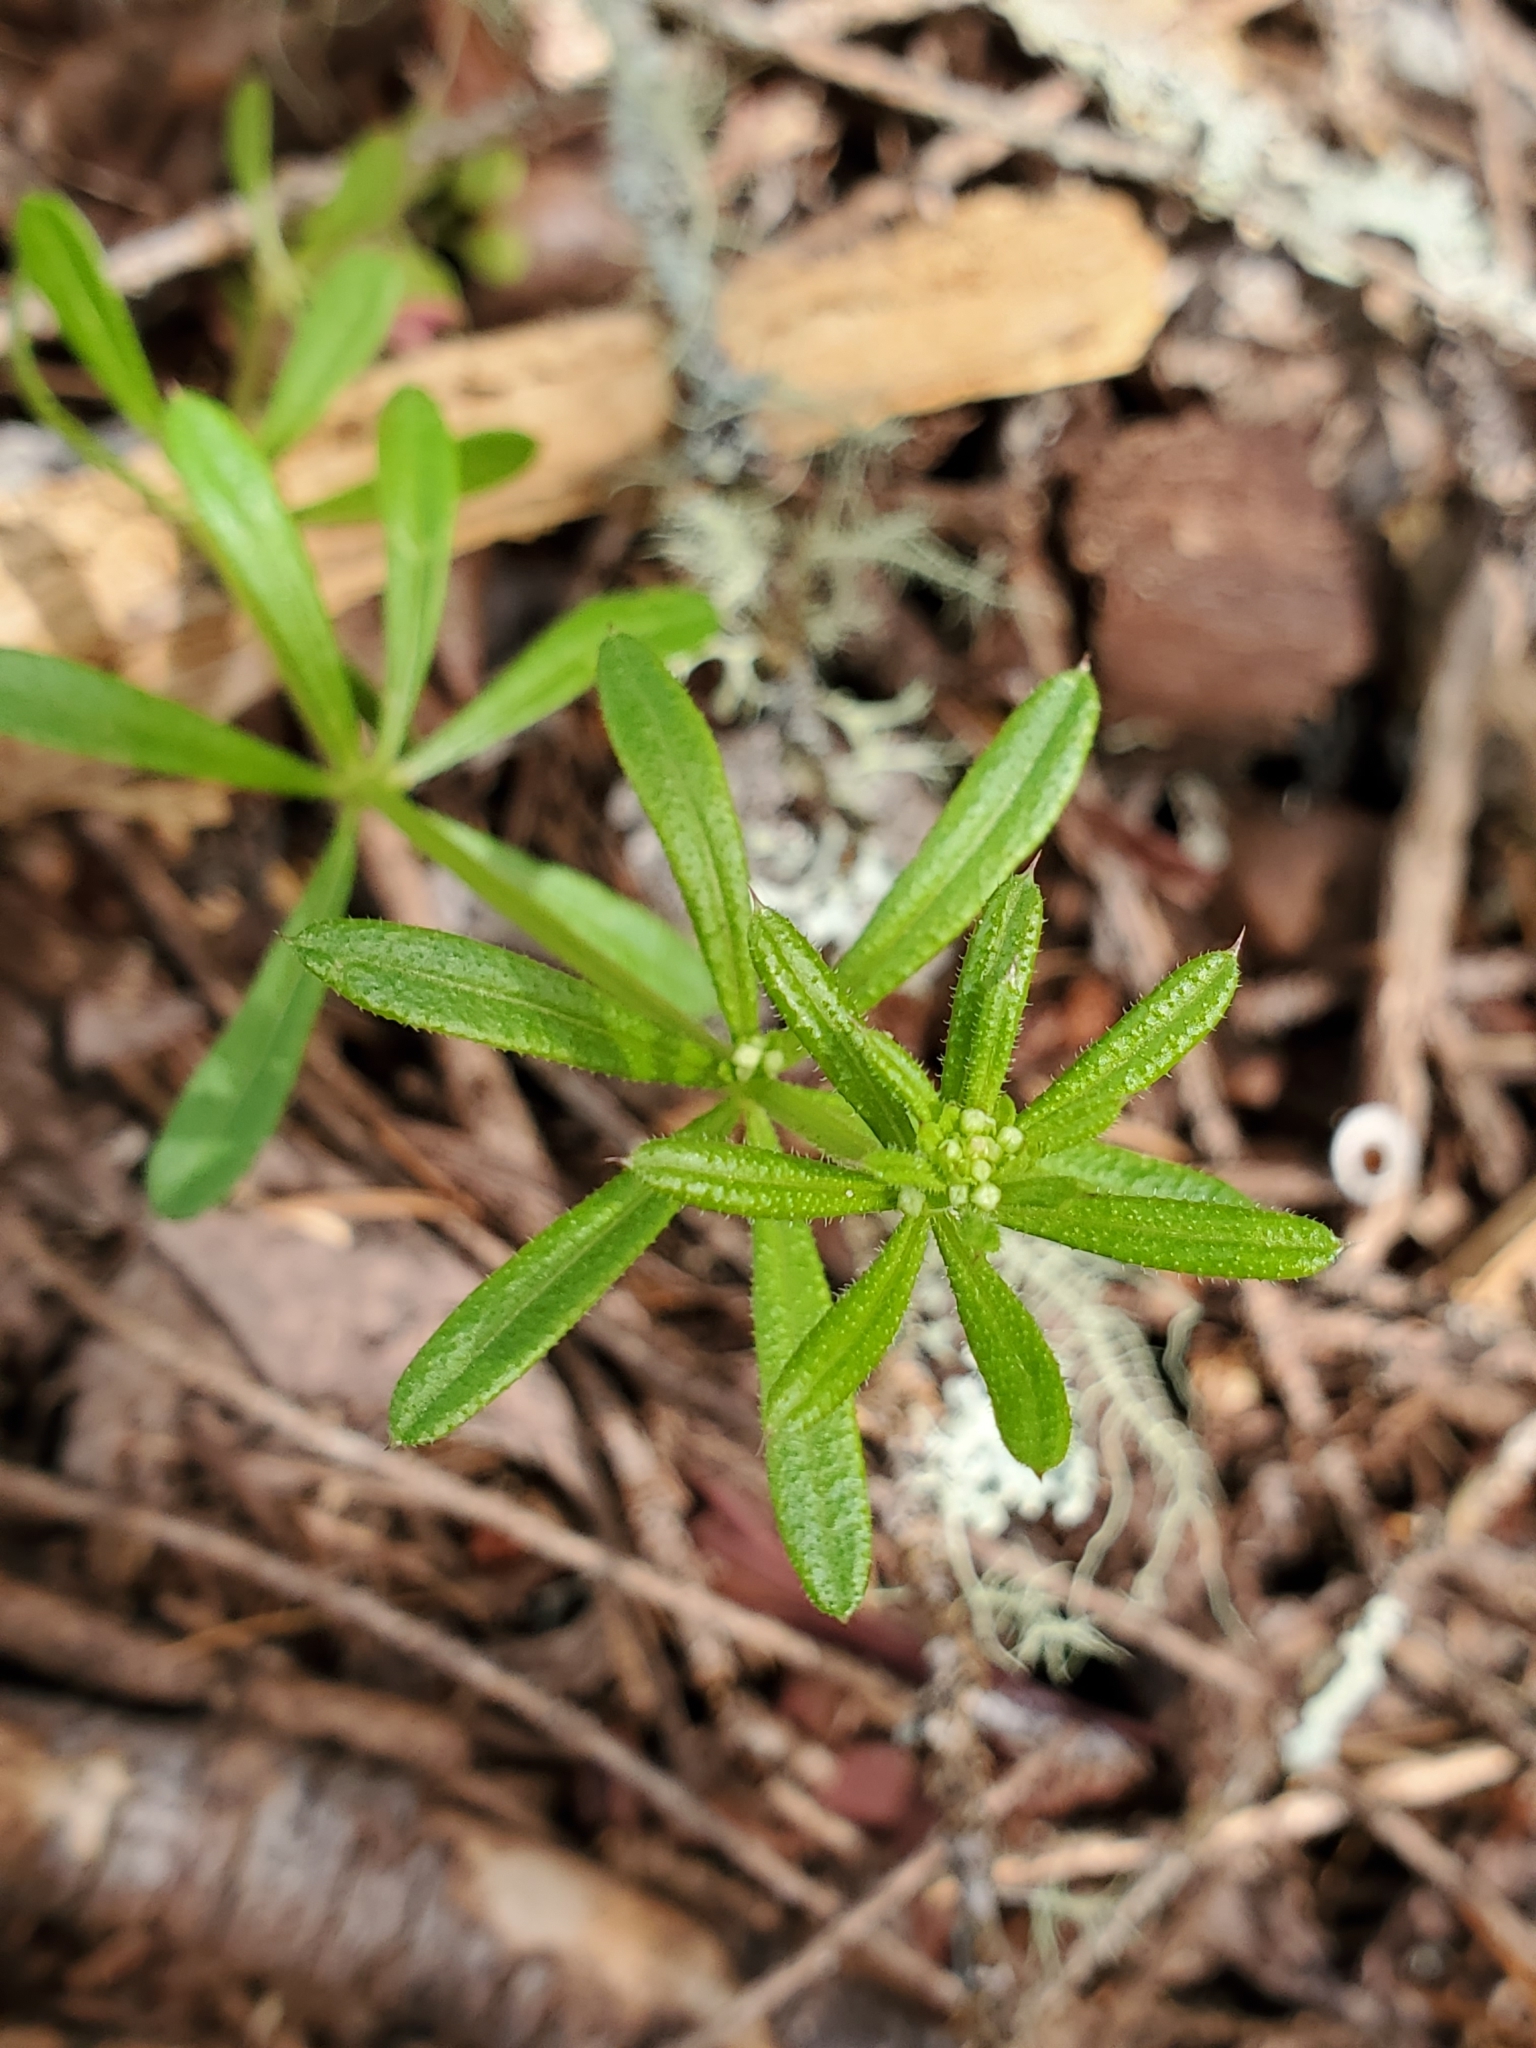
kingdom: Plantae
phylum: Tracheophyta
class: Magnoliopsida
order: Gentianales
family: Rubiaceae
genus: Galium
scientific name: Galium aparine
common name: Cleavers
